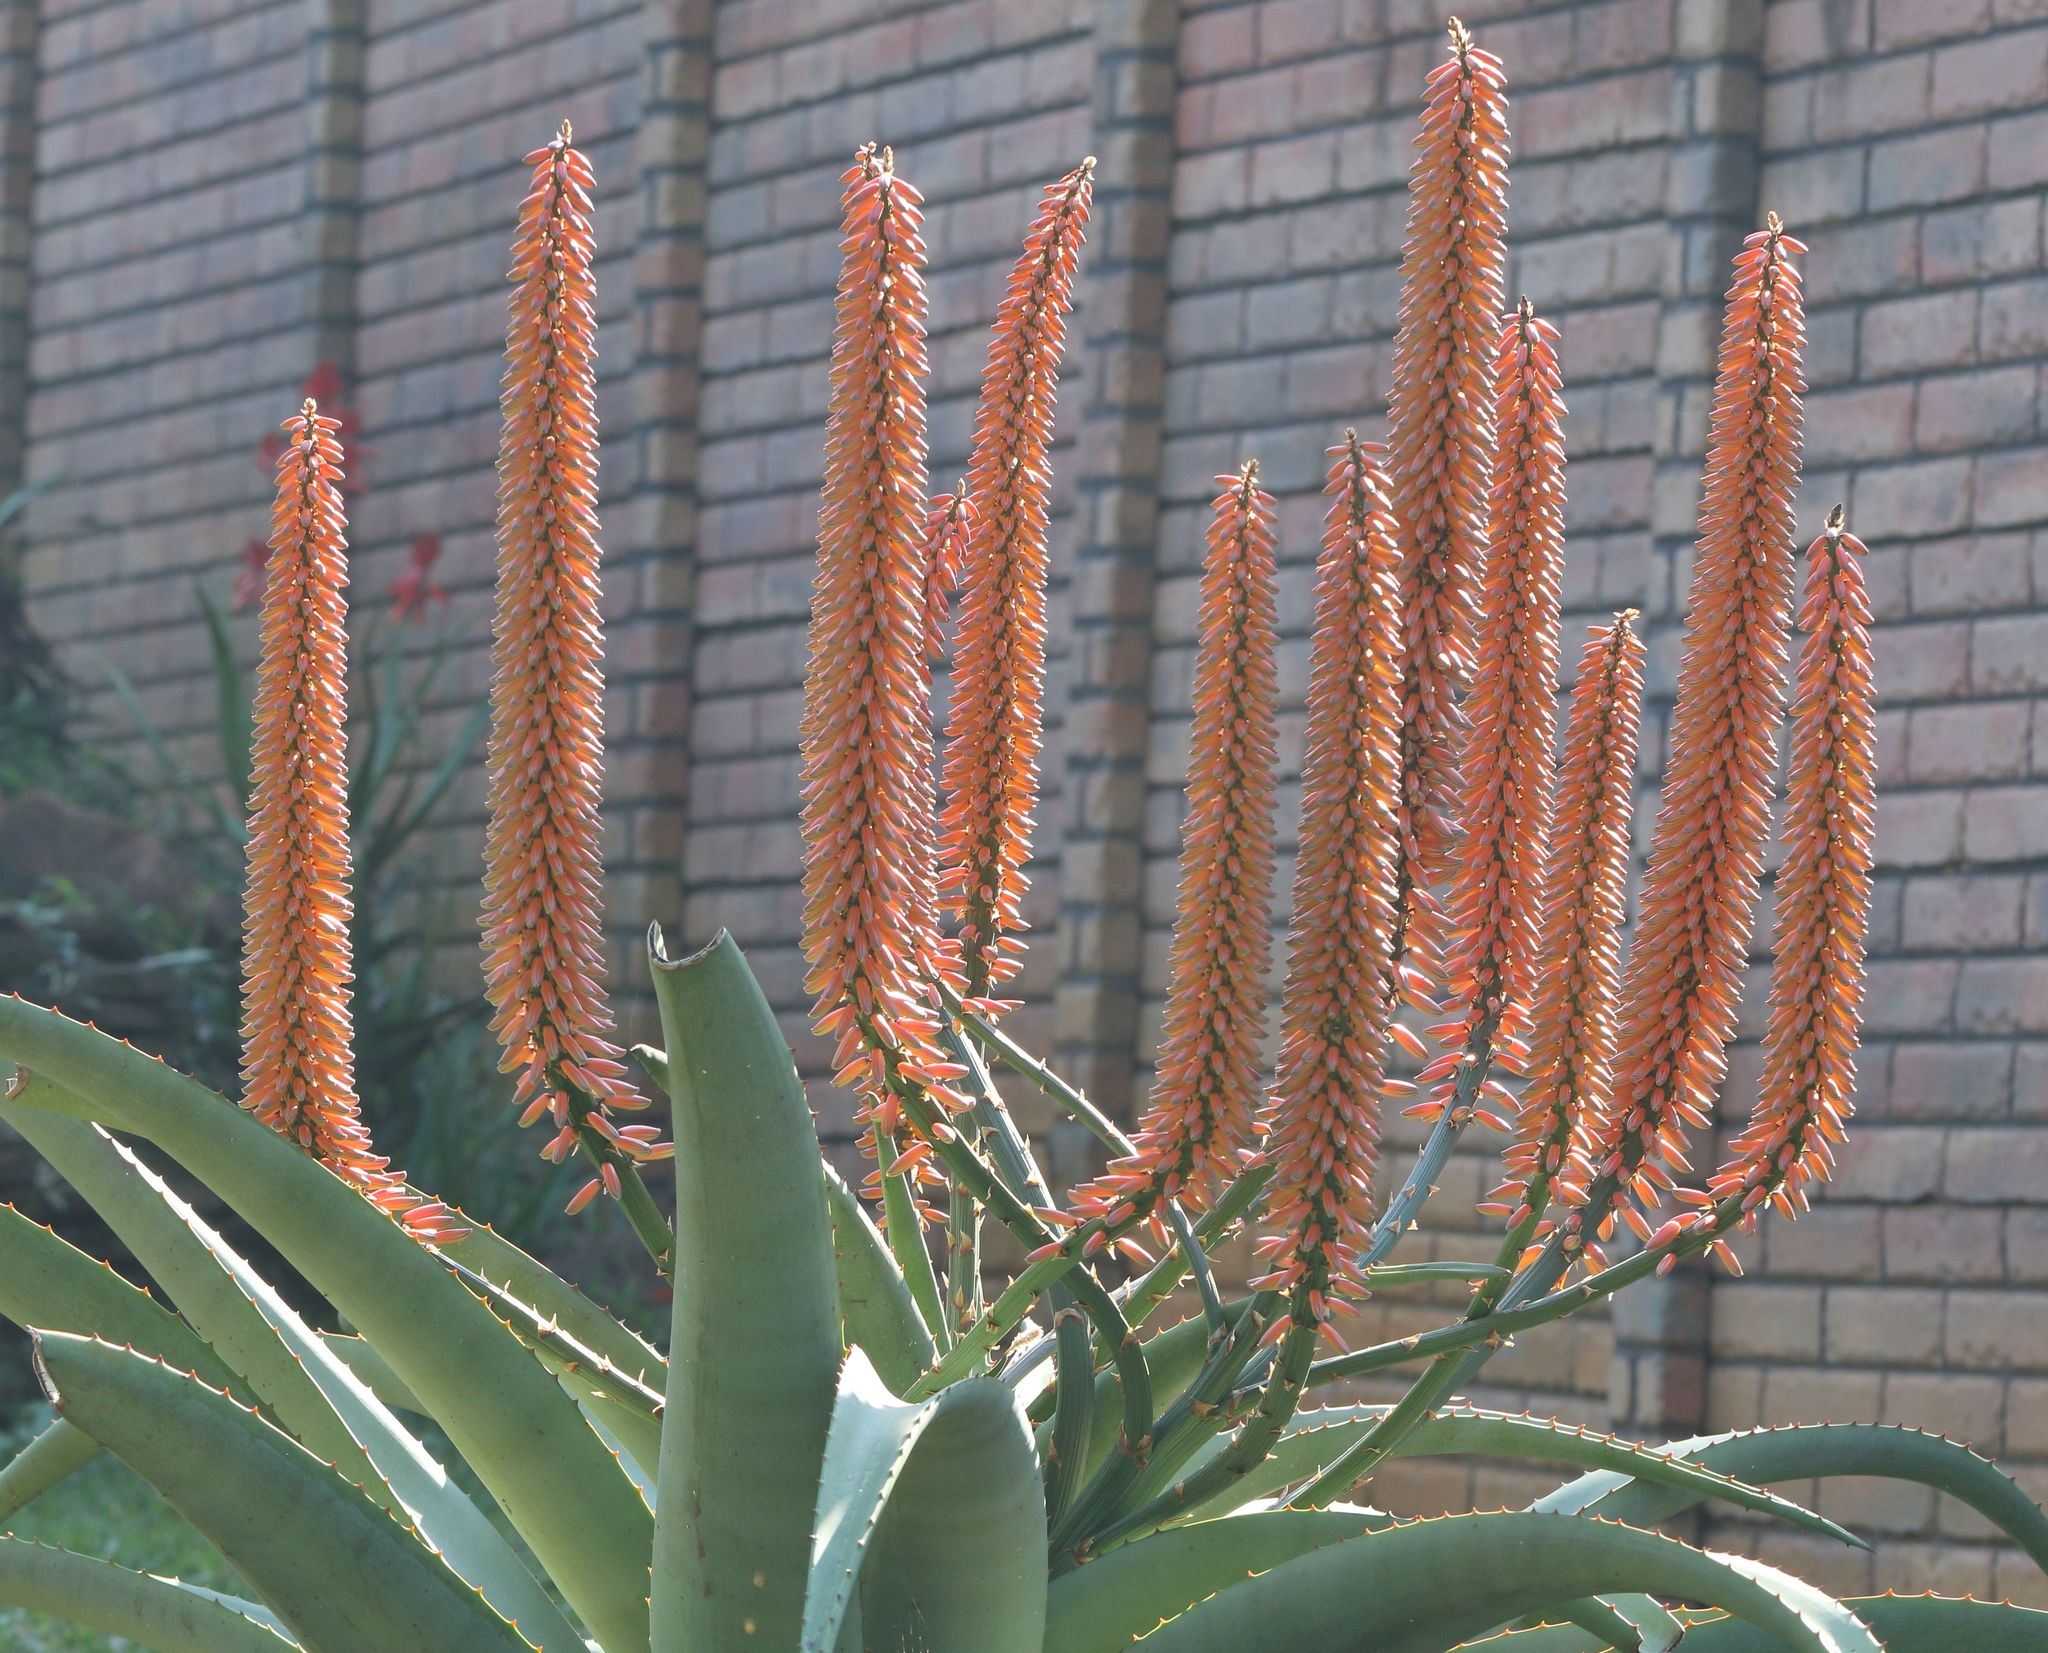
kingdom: Plantae
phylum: Tracheophyta
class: Liliopsida
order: Asparagales
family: Asphodelaceae
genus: Aloe
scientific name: Aloe ferox
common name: Bitter aloe
